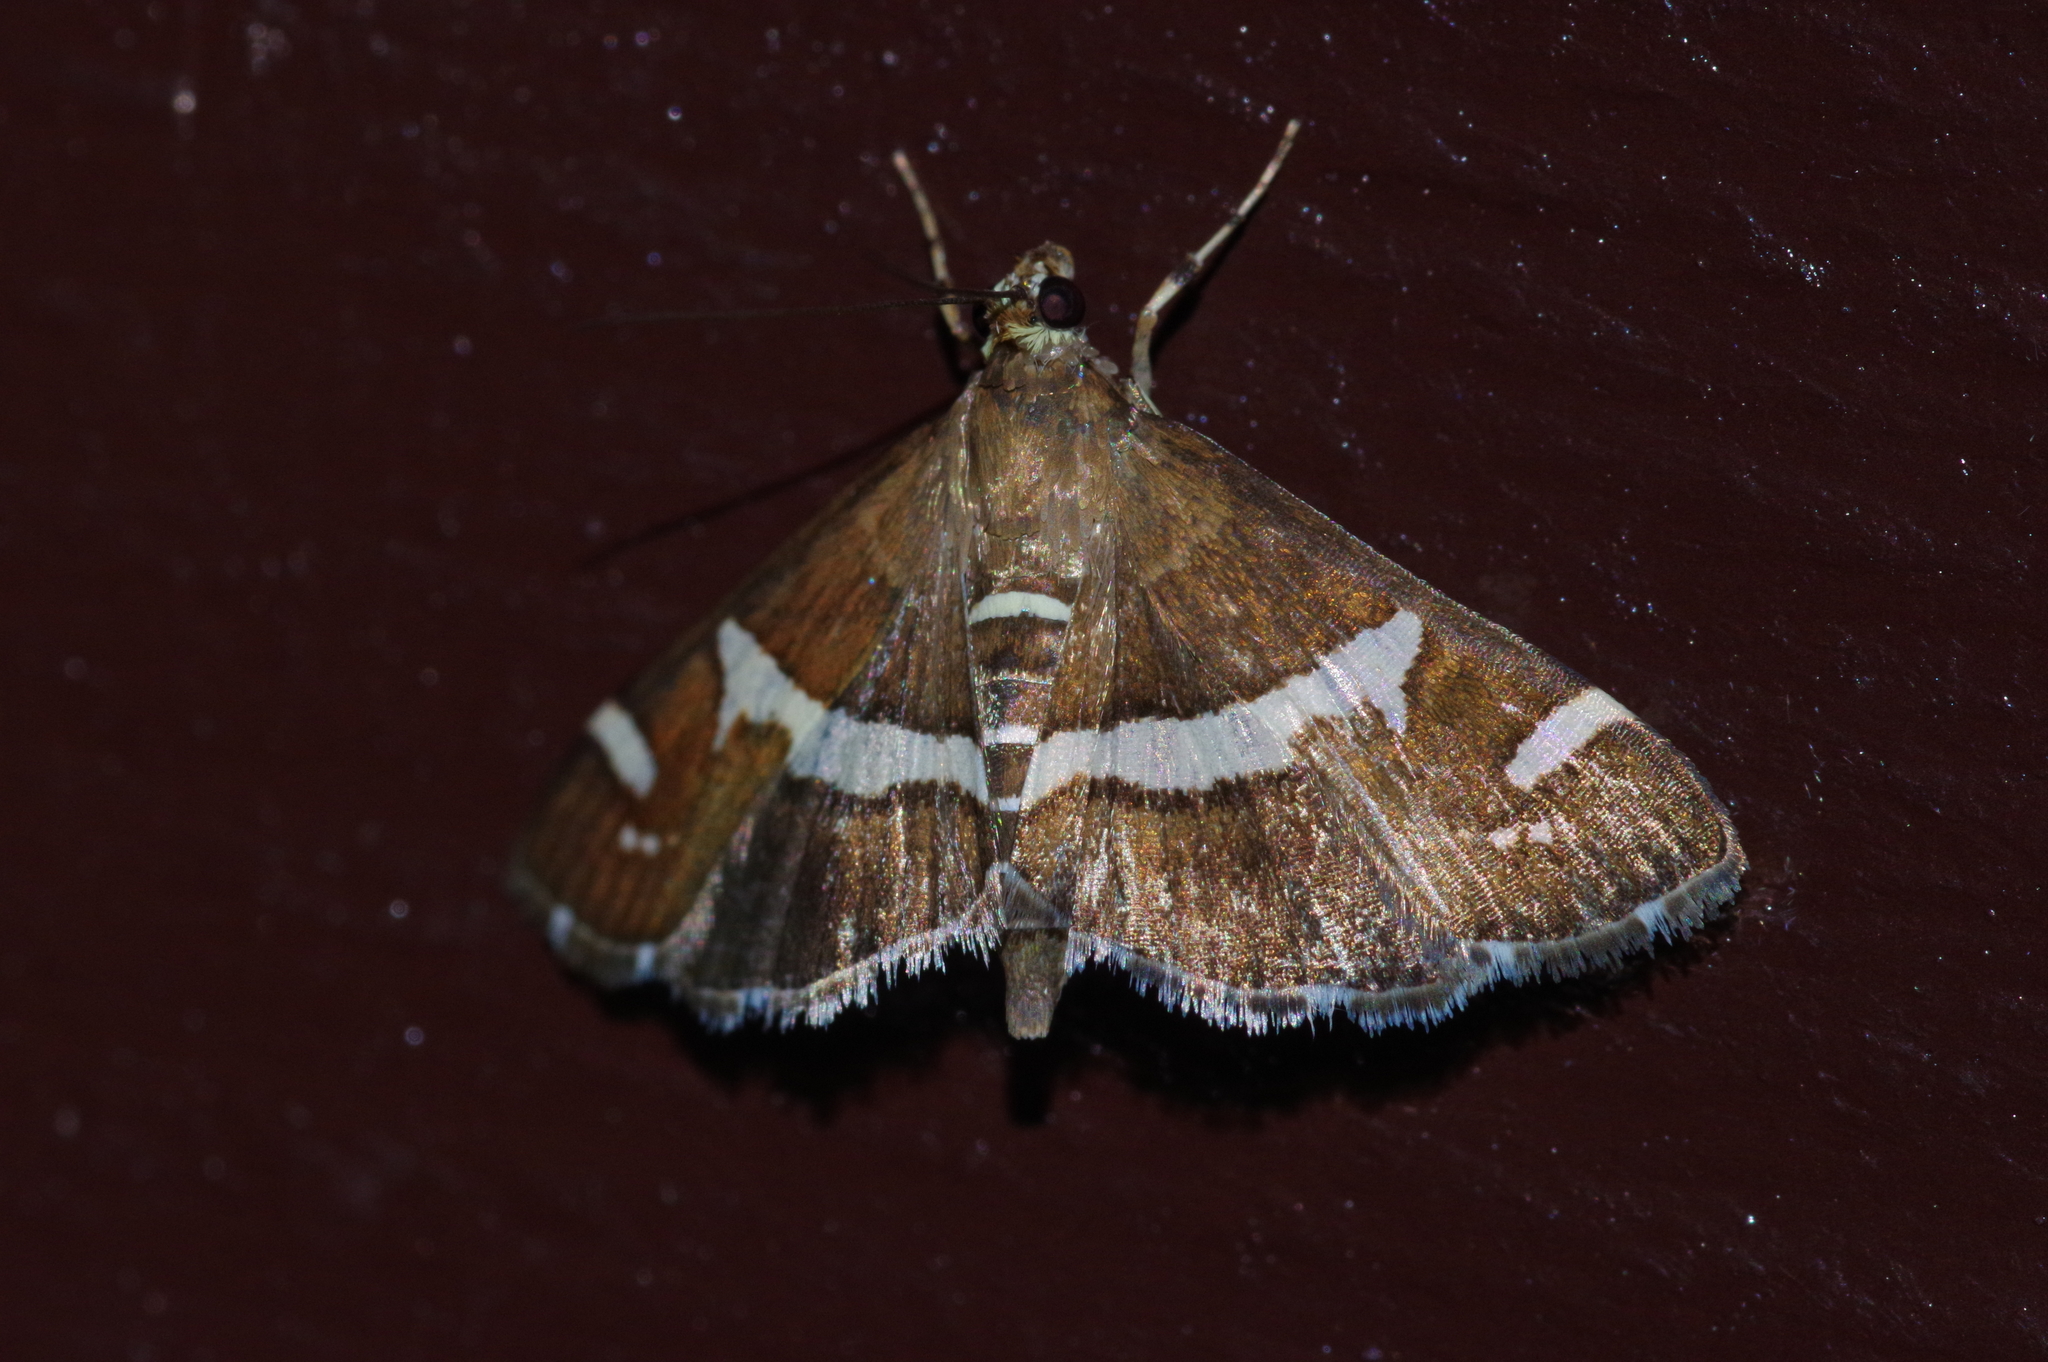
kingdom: Animalia
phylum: Arthropoda
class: Insecta
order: Lepidoptera
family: Crambidae
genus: Spoladea
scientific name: Spoladea recurvalis
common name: Beet webworm moth
